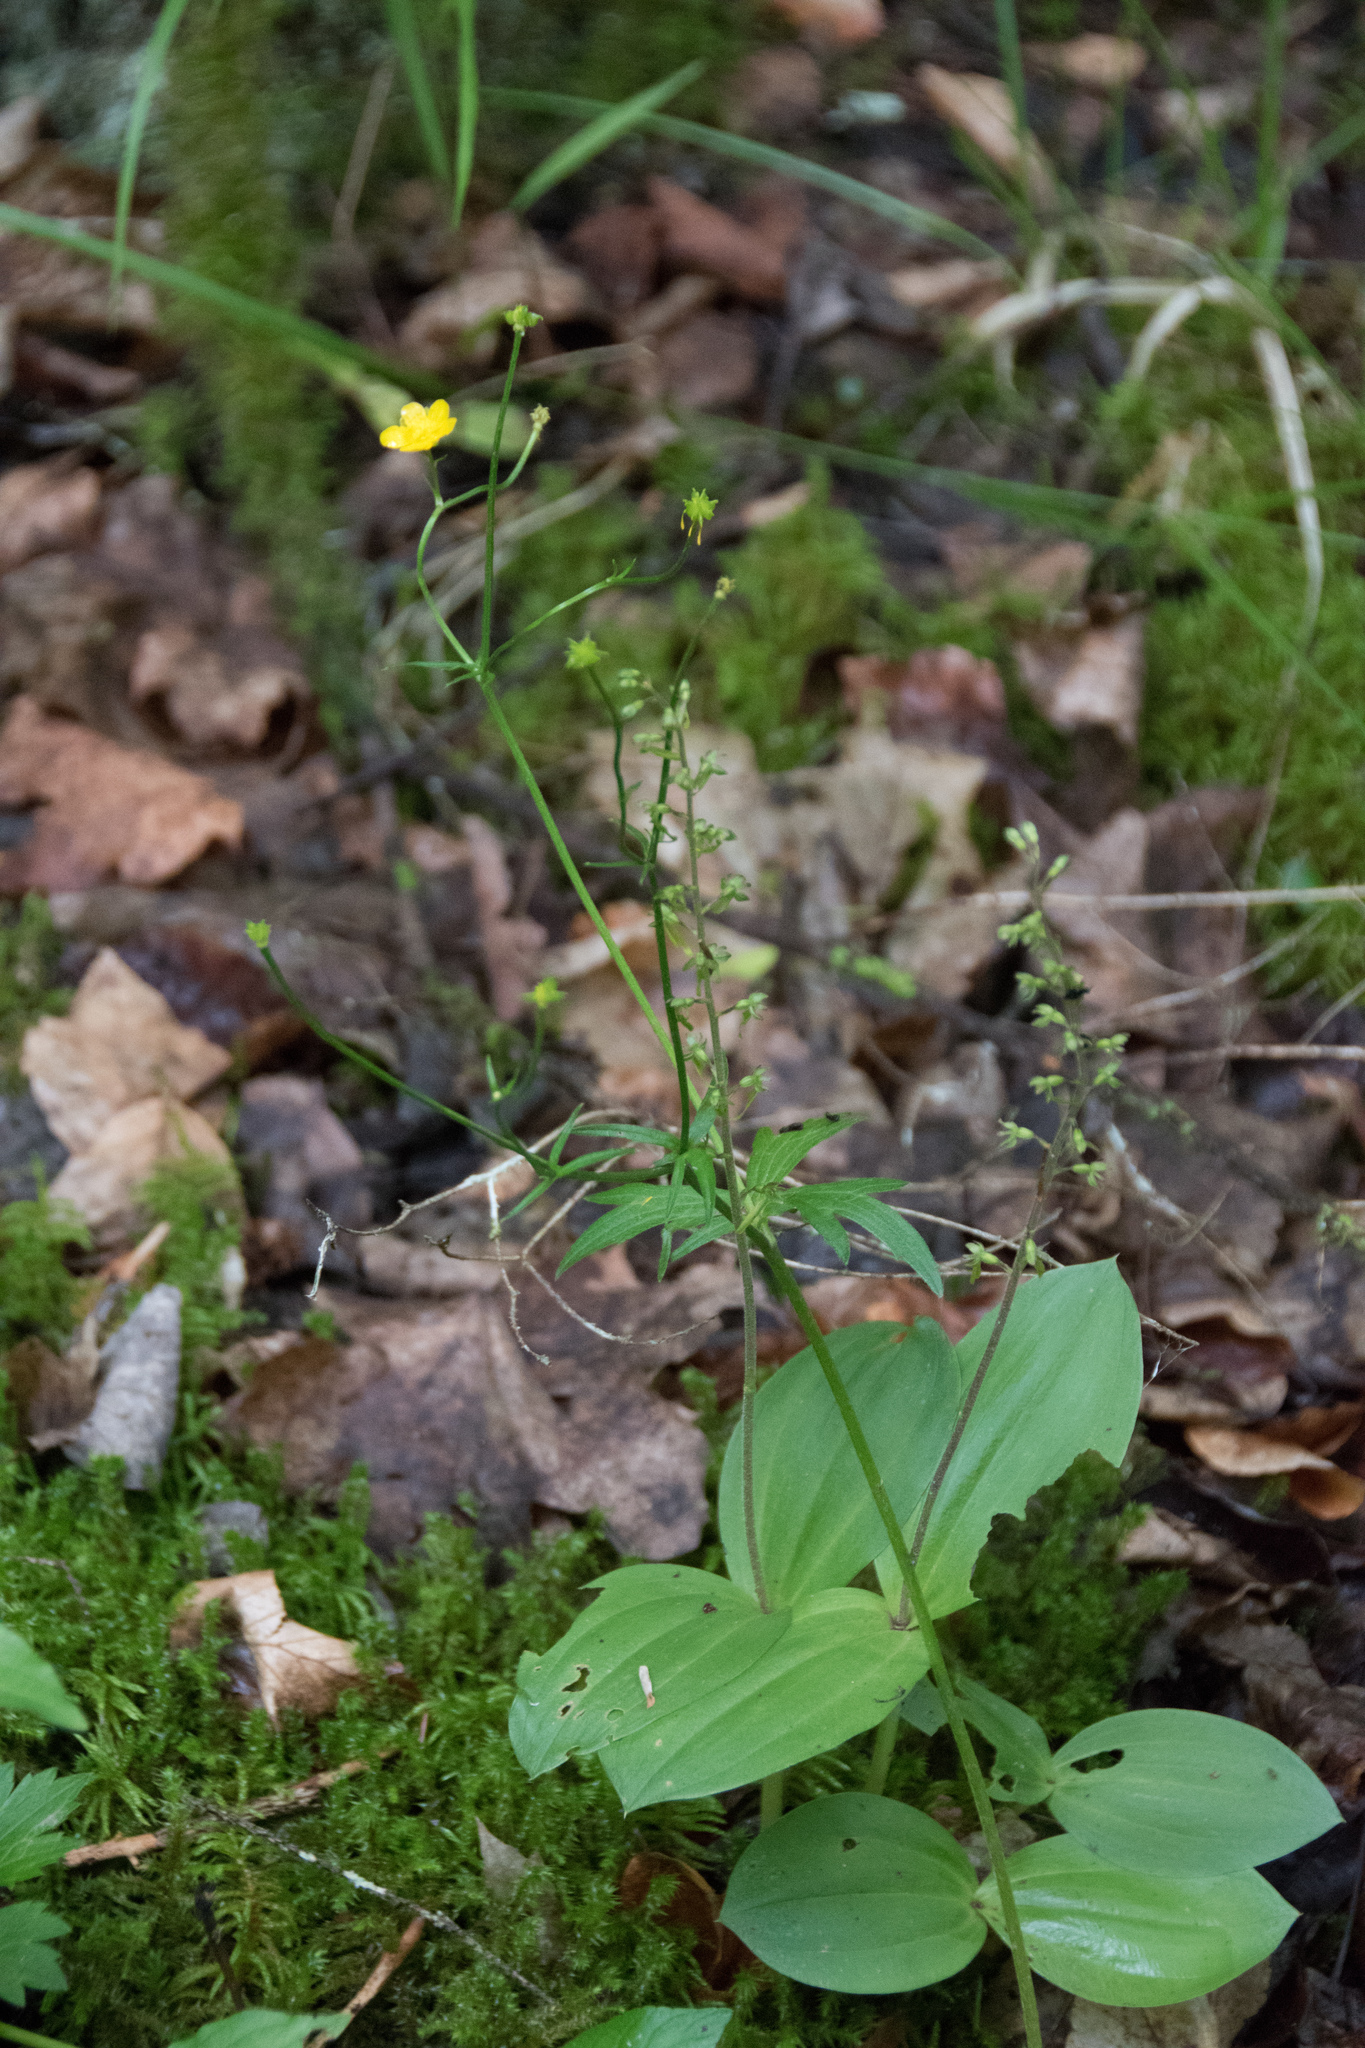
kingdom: Plantae
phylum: Tracheophyta
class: Liliopsida
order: Asparagales
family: Orchidaceae
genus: Neottia
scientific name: Neottia ovata
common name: Common twayblade
